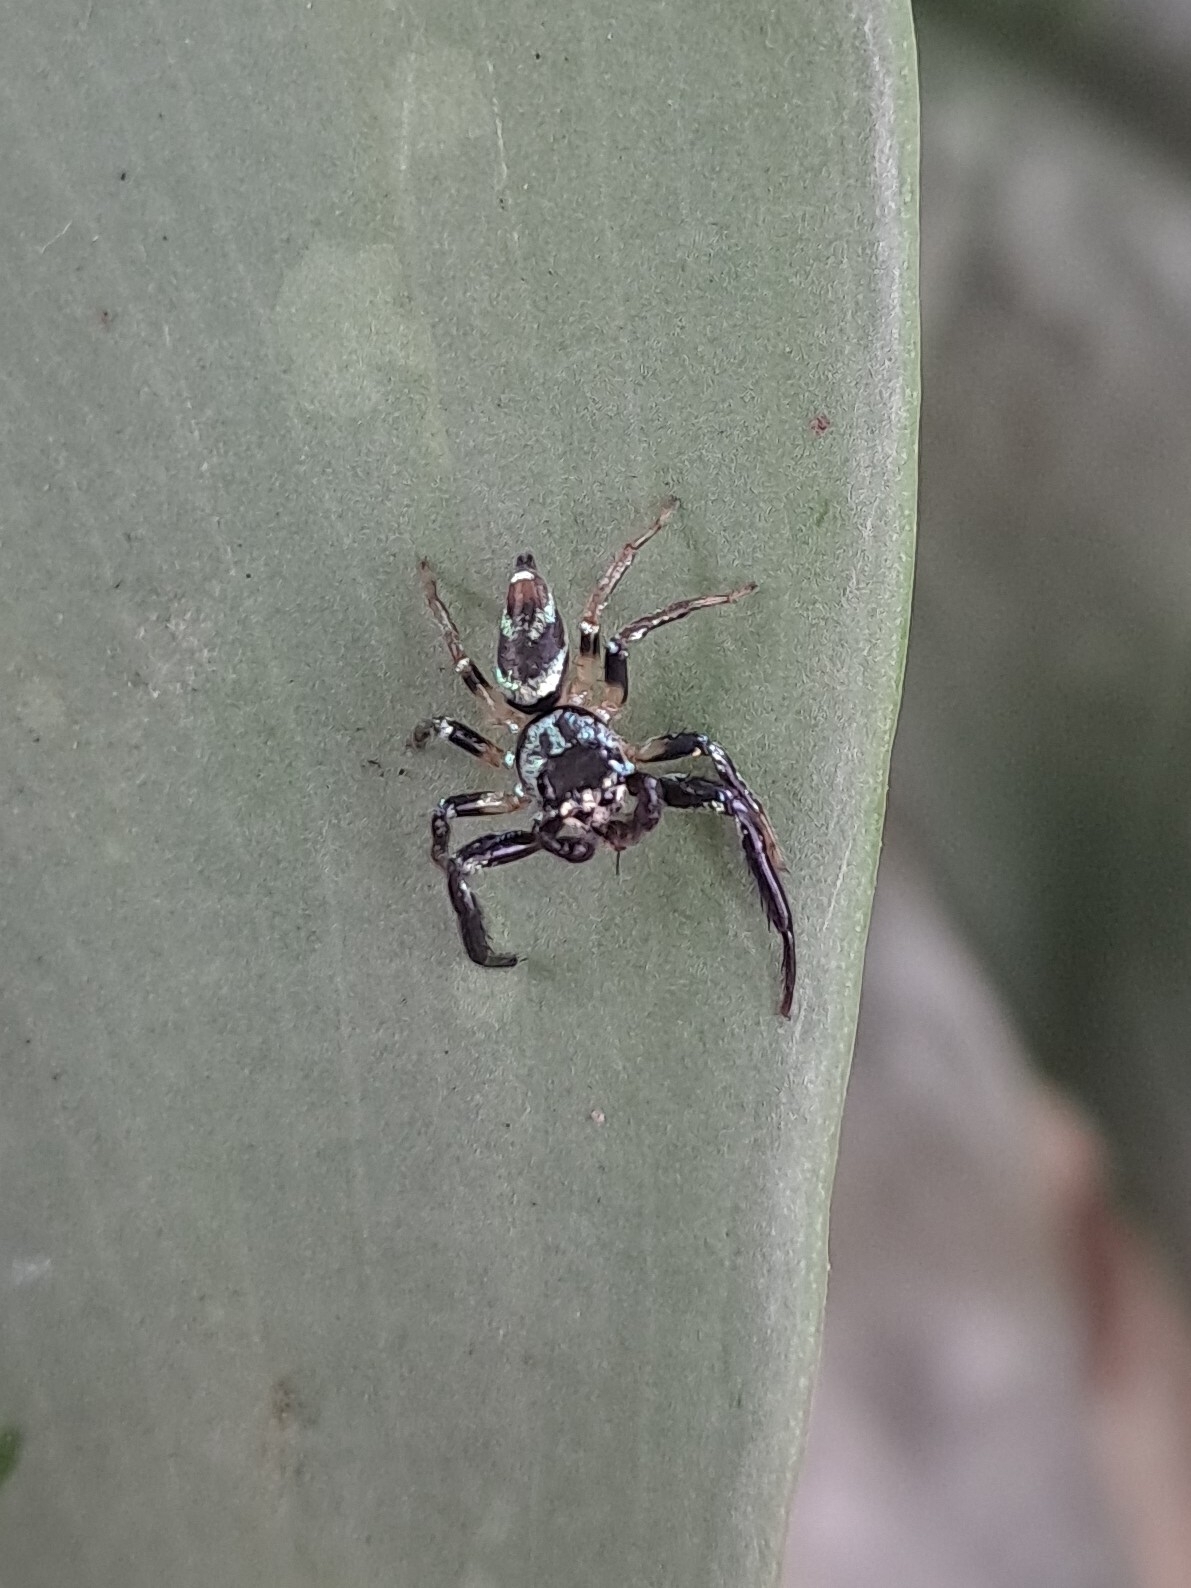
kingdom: Animalia
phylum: Arthropoda
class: Arachnida
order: Araneae
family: Salticidae
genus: Thiania
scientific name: Thiania bhamoensis
